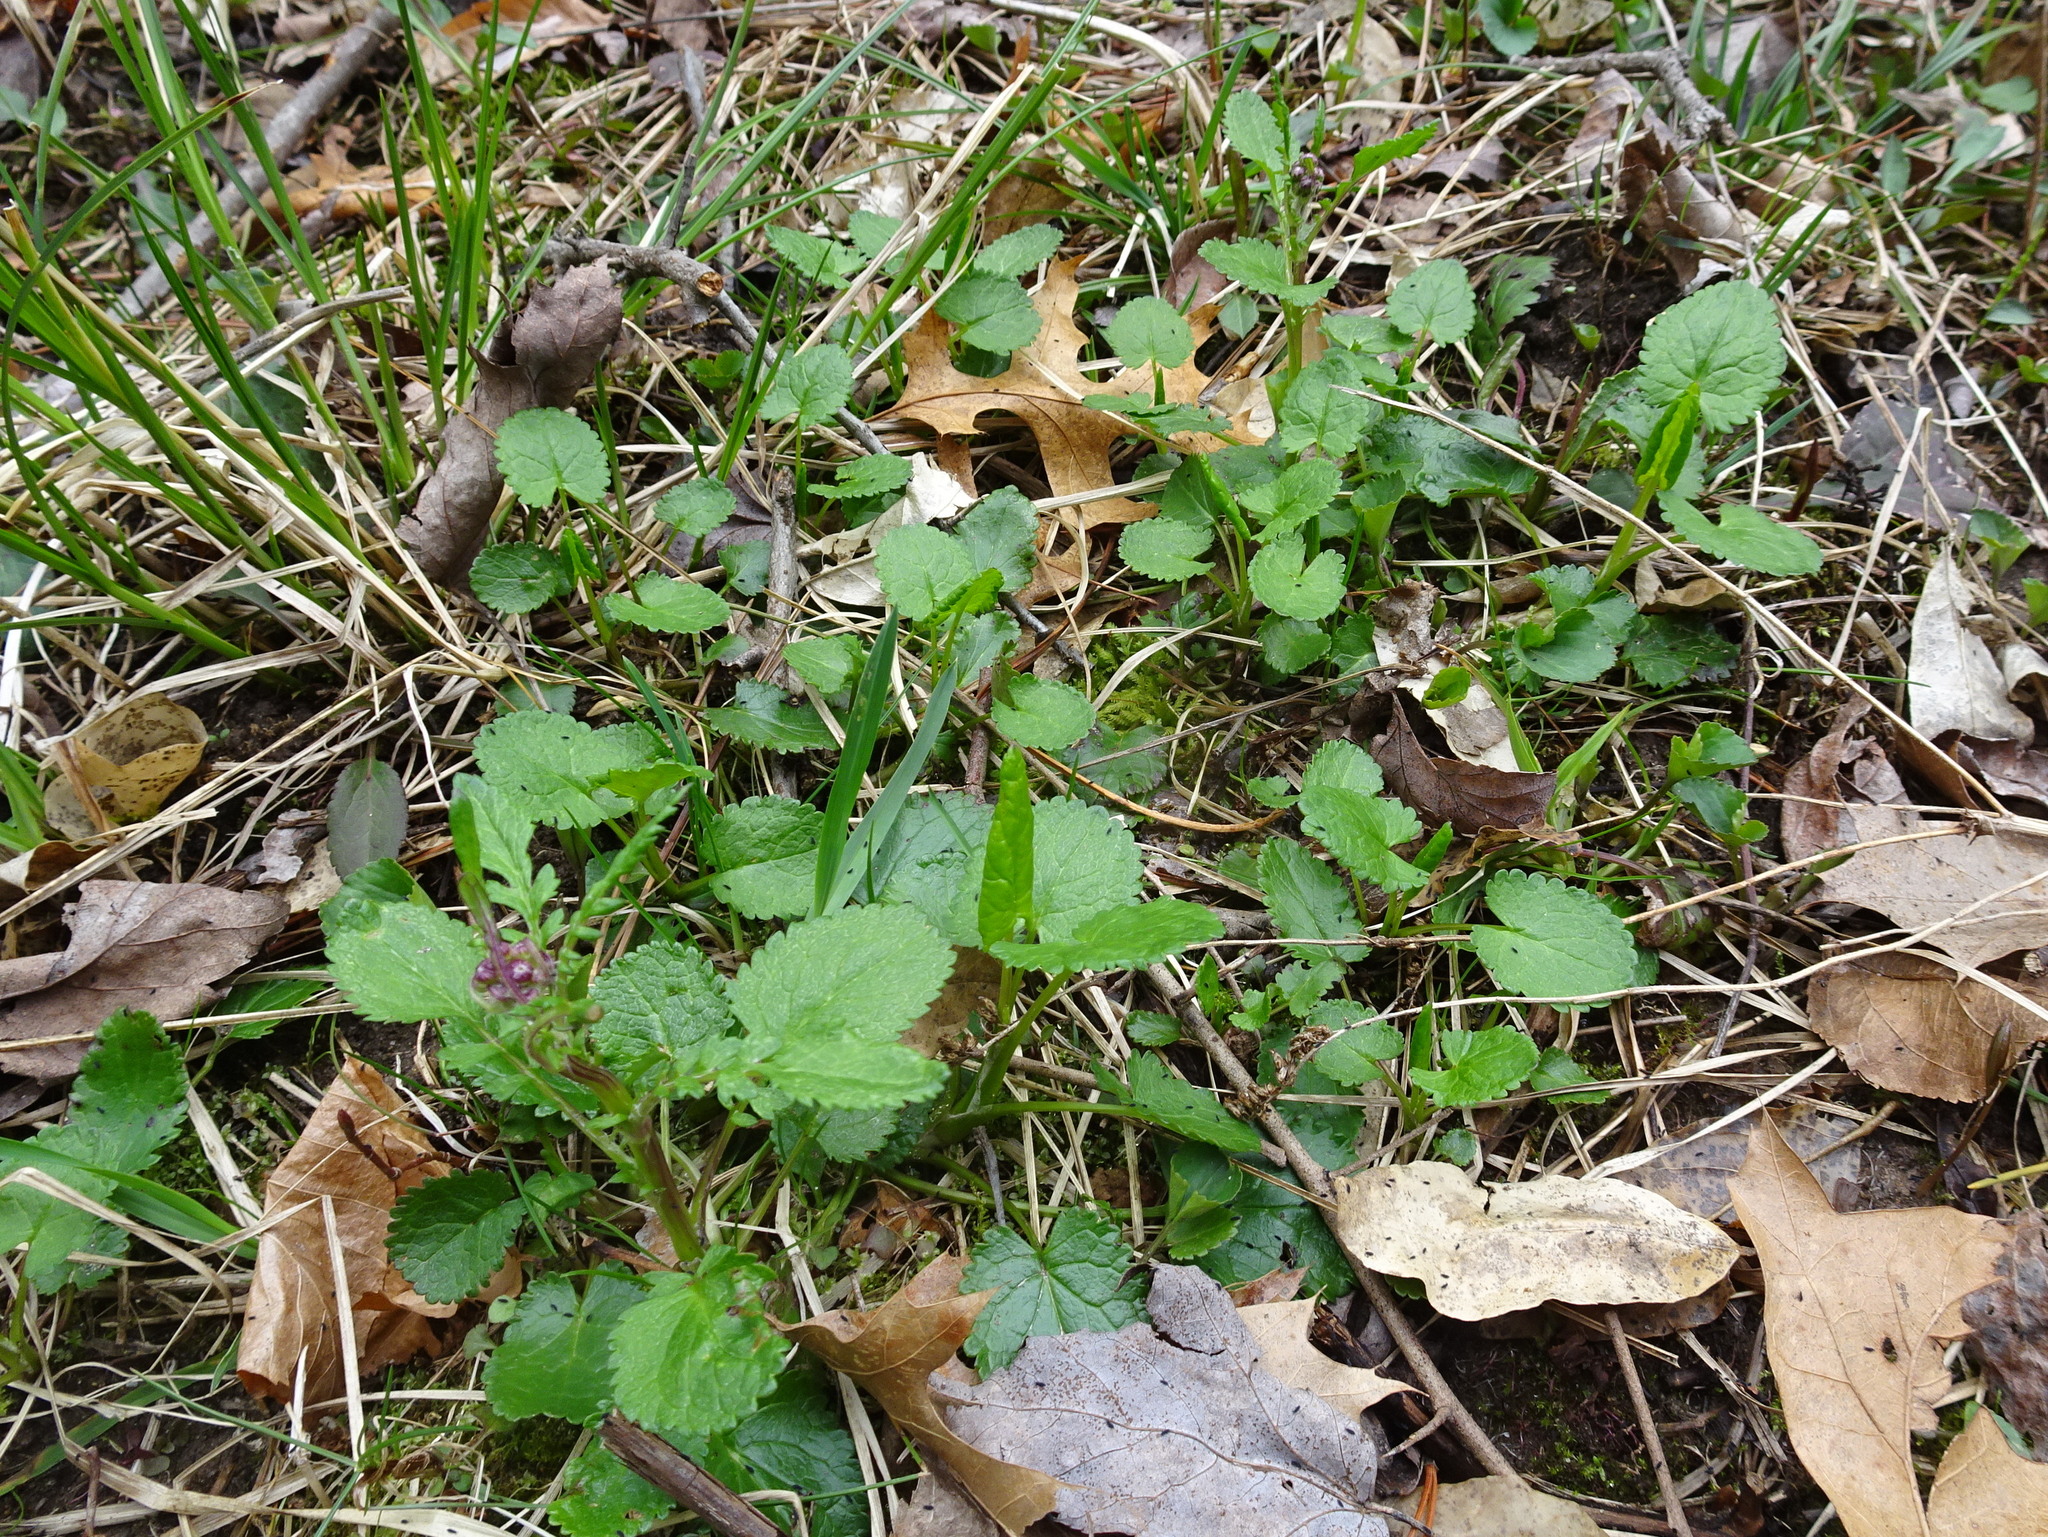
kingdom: Plantae
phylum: Tracheophyta
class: Magnoliopsida
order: Asterales
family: Asteraceae
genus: Packera
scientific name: Packera aurea
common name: Golden groundsel
